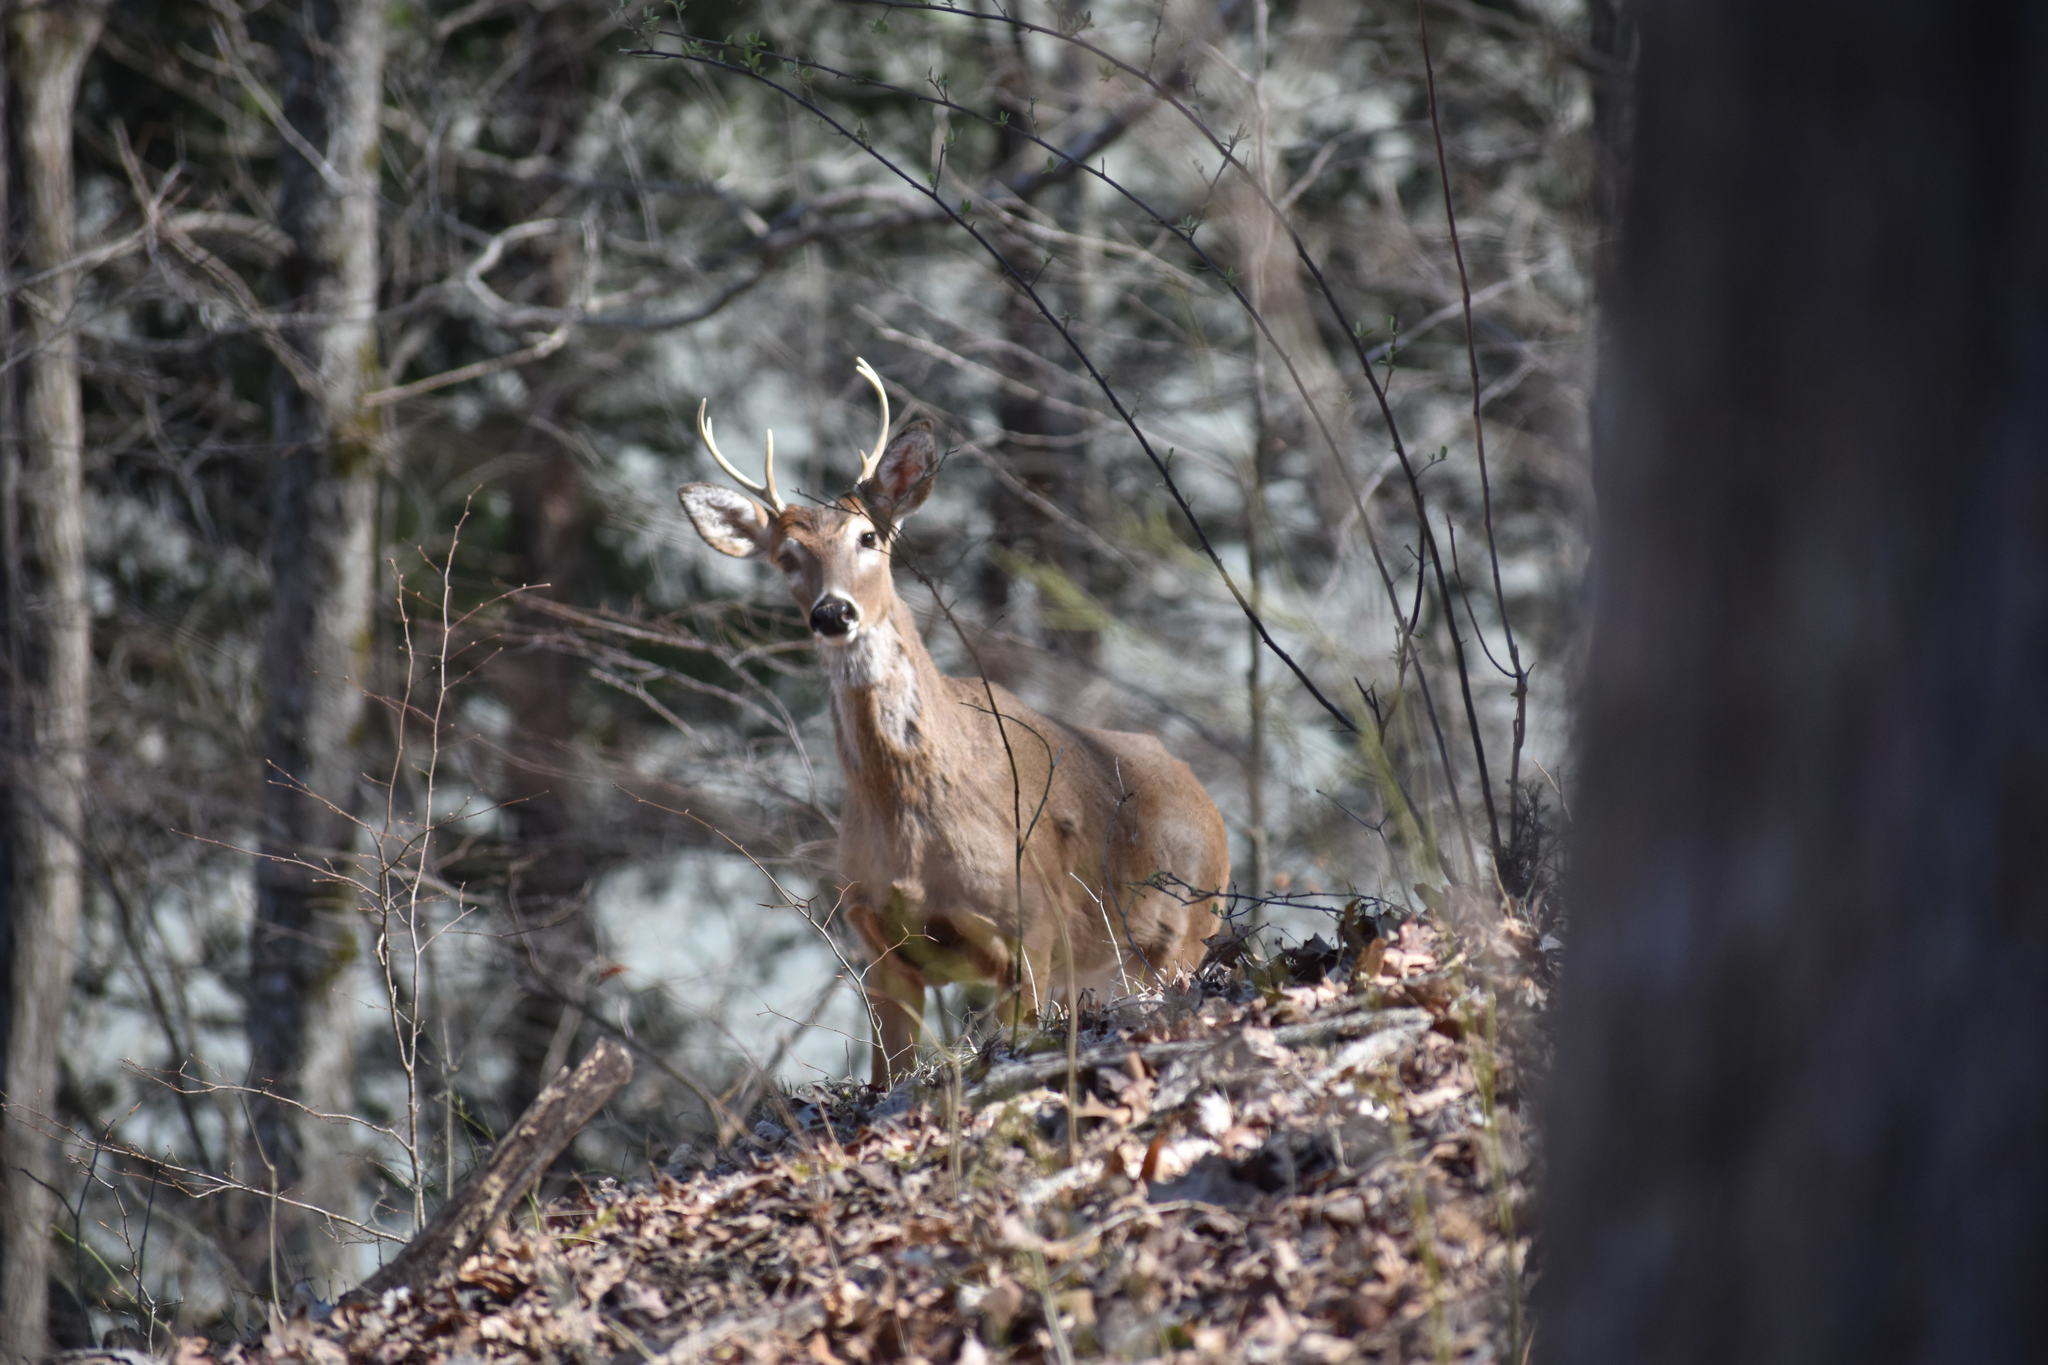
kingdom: Animalia
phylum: Chordata
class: Mammalia
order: Artiodactyla
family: Cervidae
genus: Odocoileus
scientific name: Odocoileus virginianus
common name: White-tailed deer
